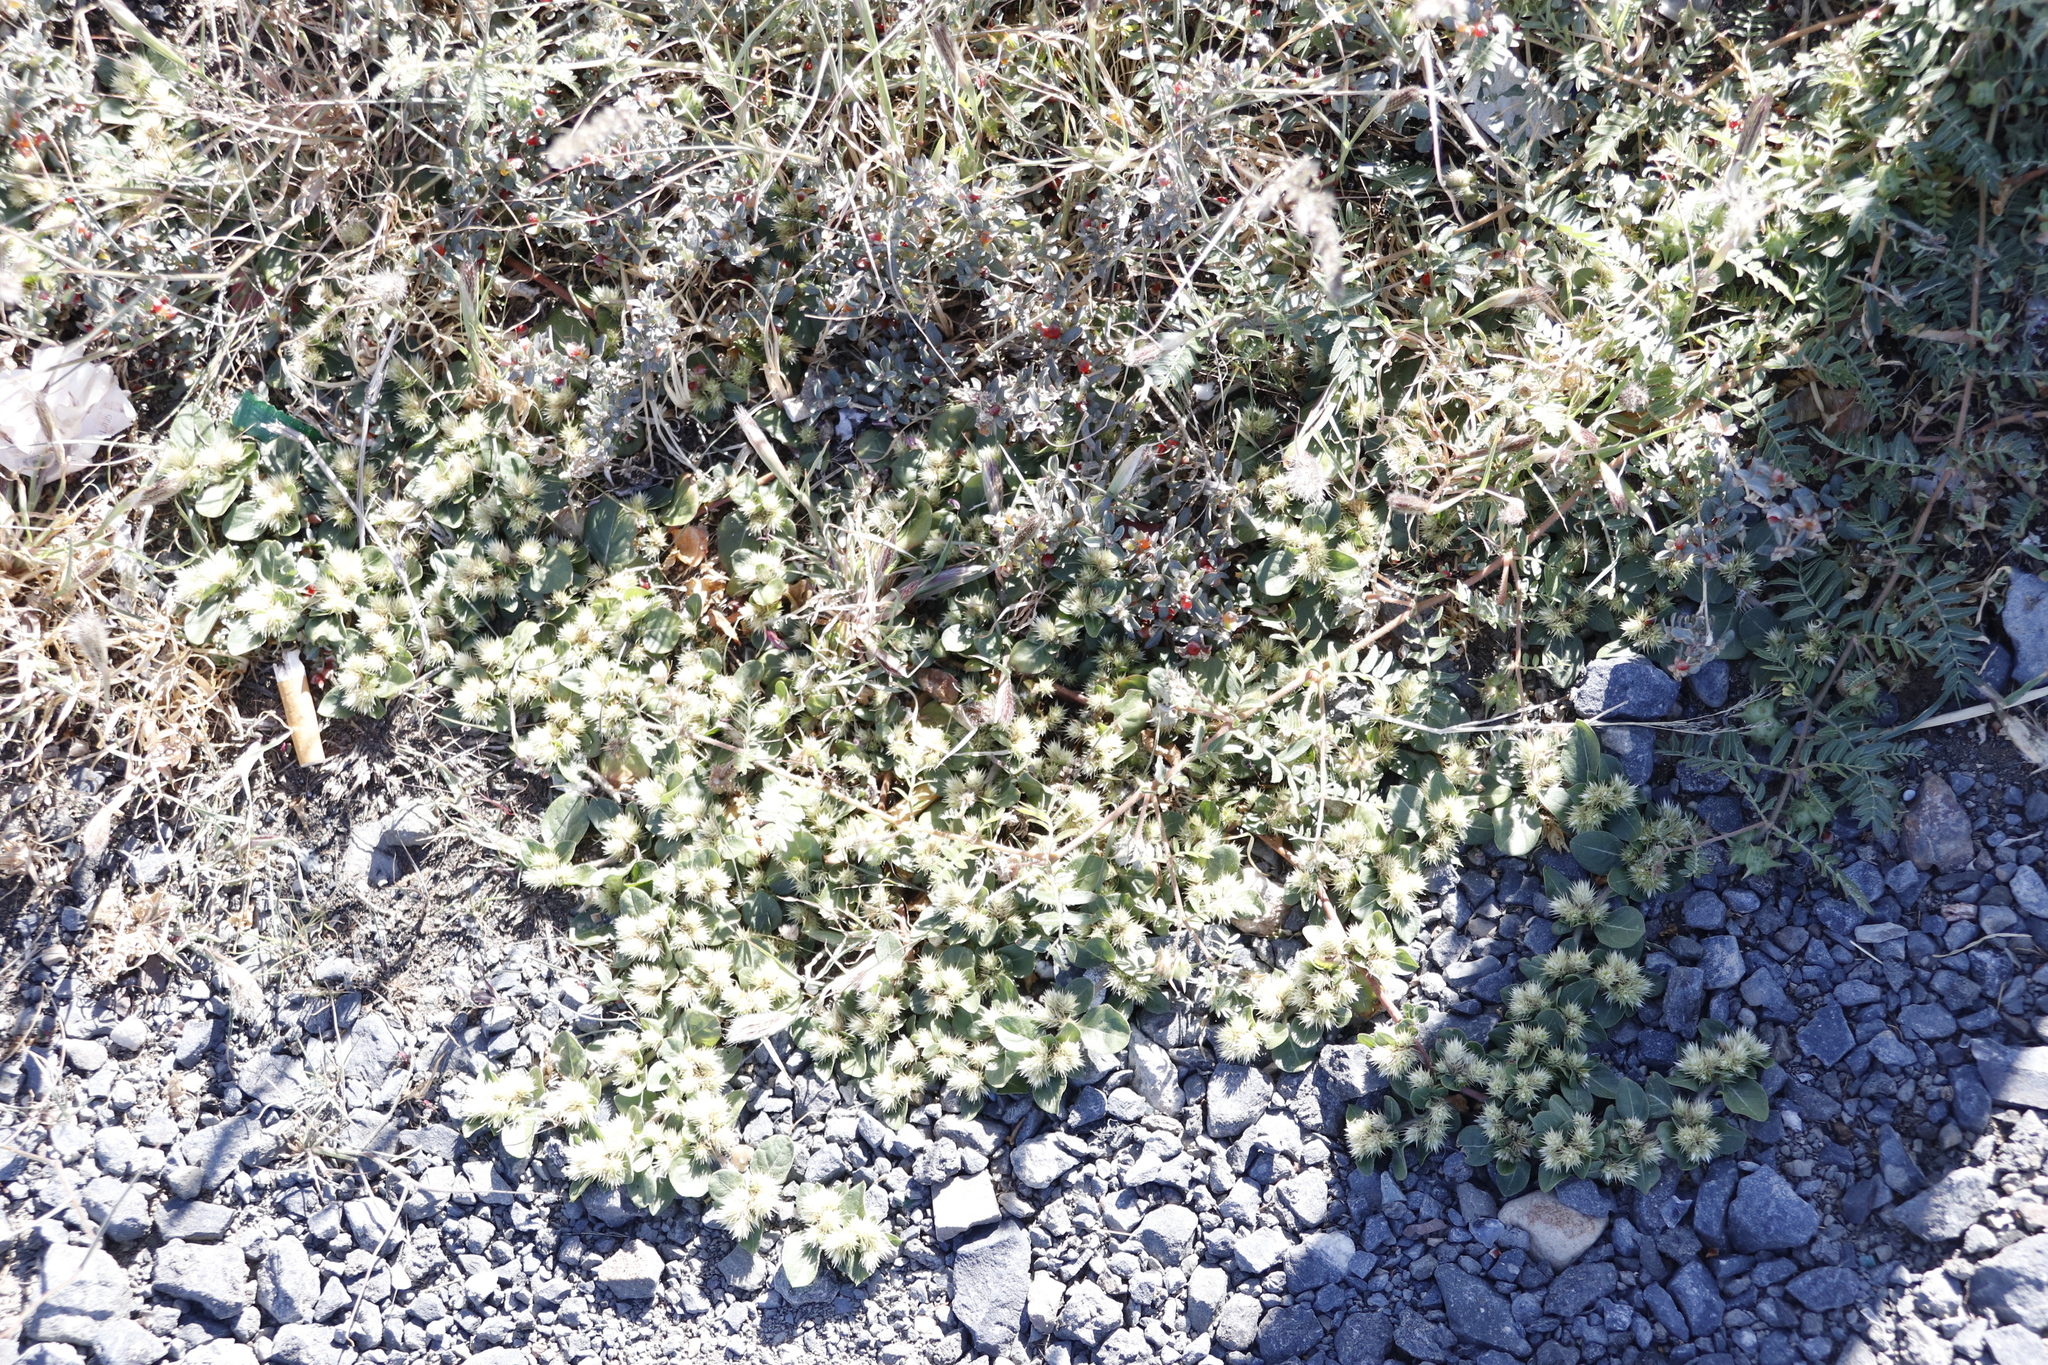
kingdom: Plantae
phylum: Tracheophyta
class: Magnoliopsida
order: Caryophyllales
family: Amaranthaceae
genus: Alternanthera
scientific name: Alternanthera pungens
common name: Khakiweed
